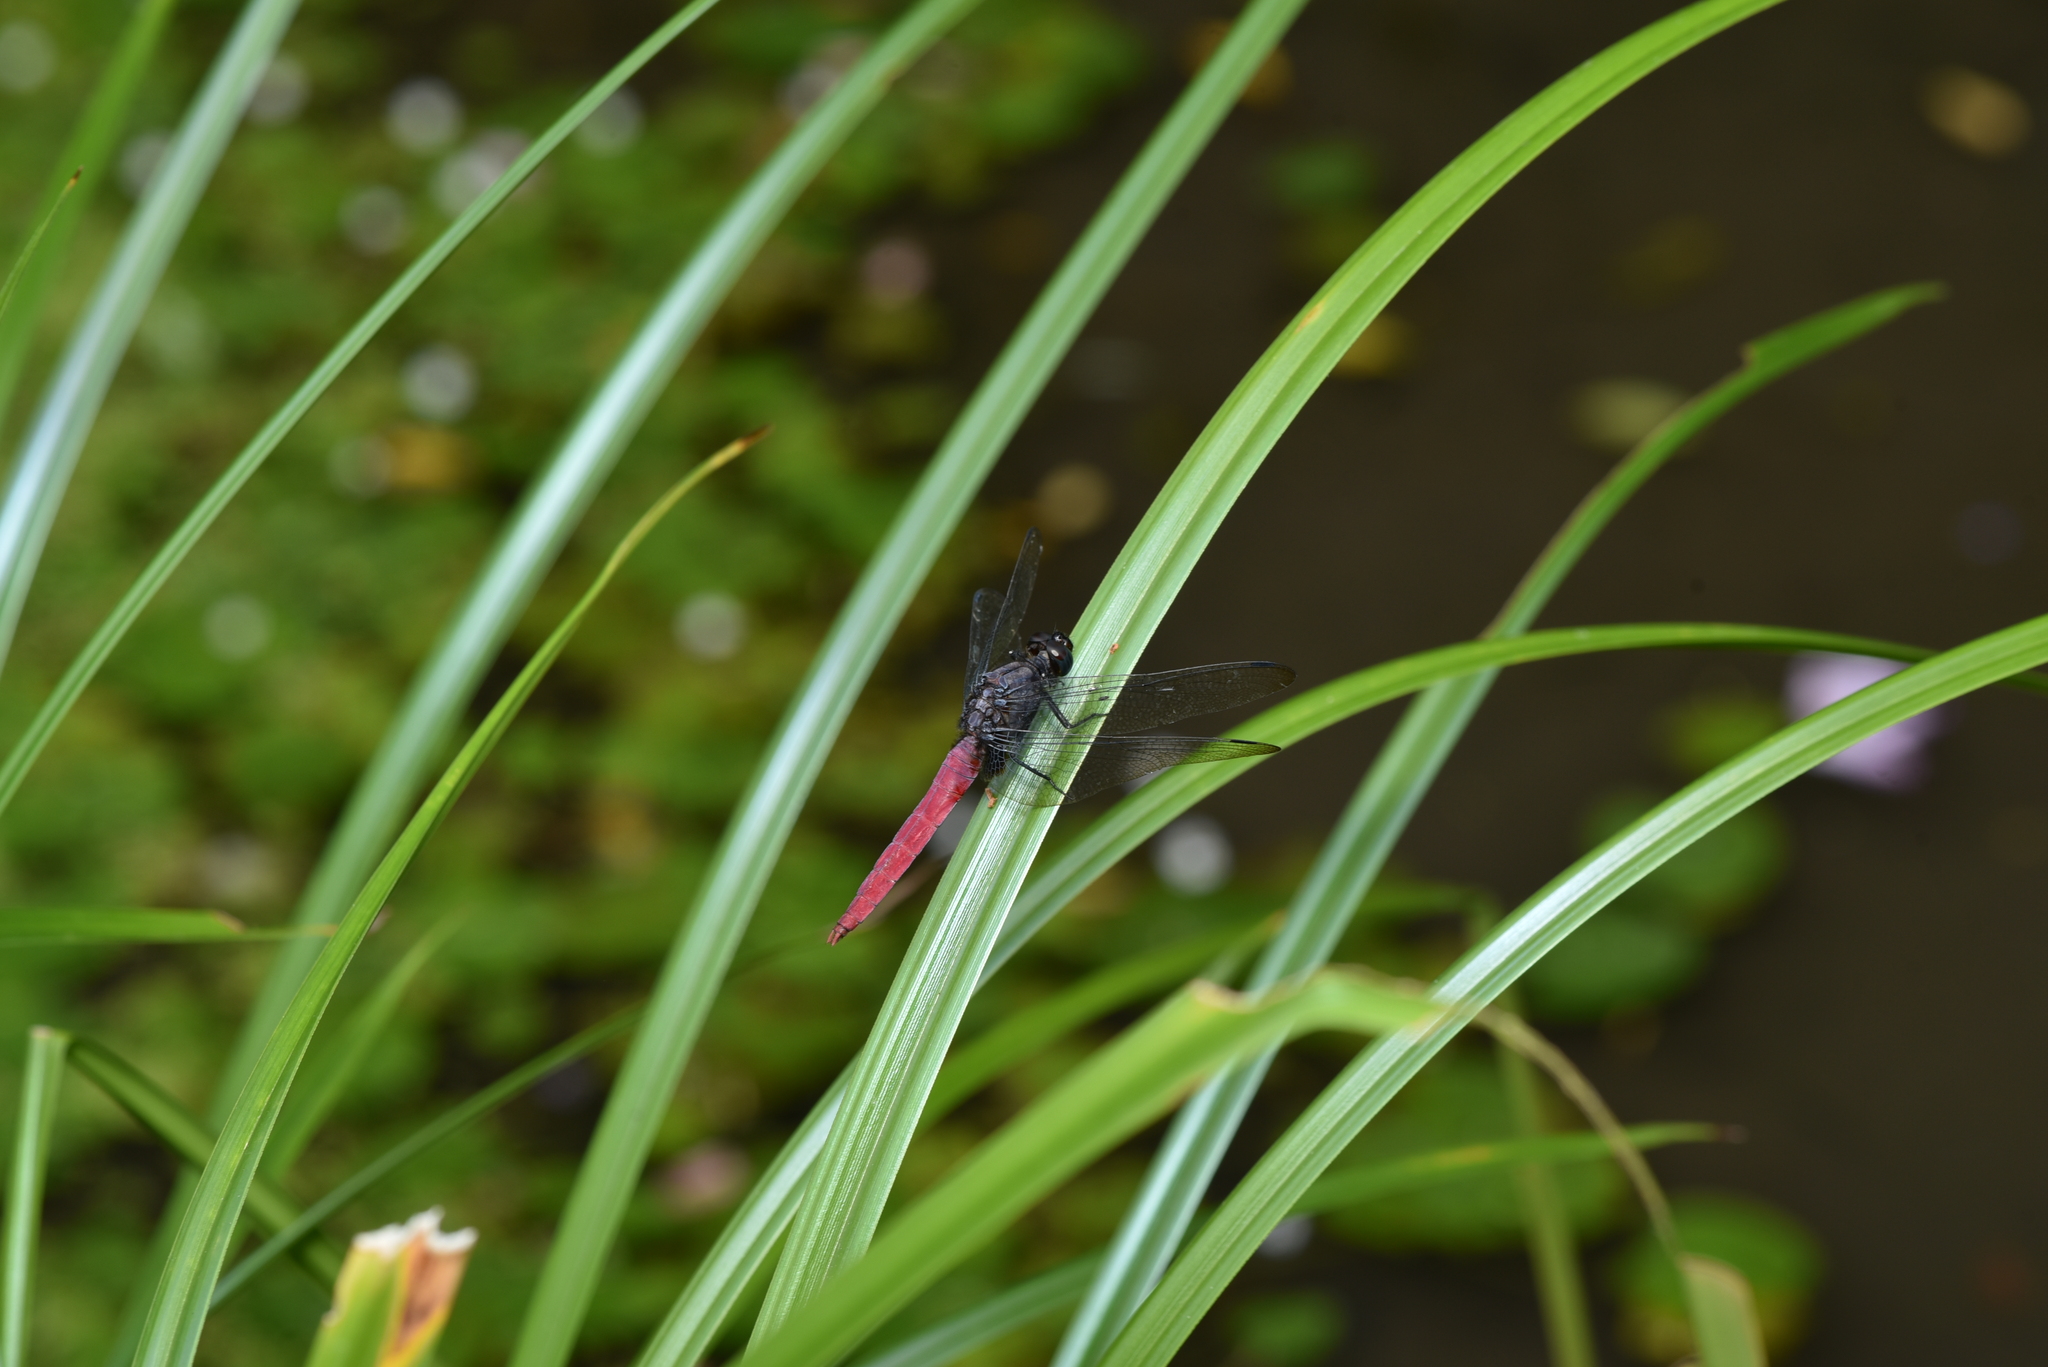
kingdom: Animalia
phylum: Arthropoda
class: Insecta
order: Odonata
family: Libellulidae
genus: Orthetrum
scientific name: Orthetrum pruinosum
